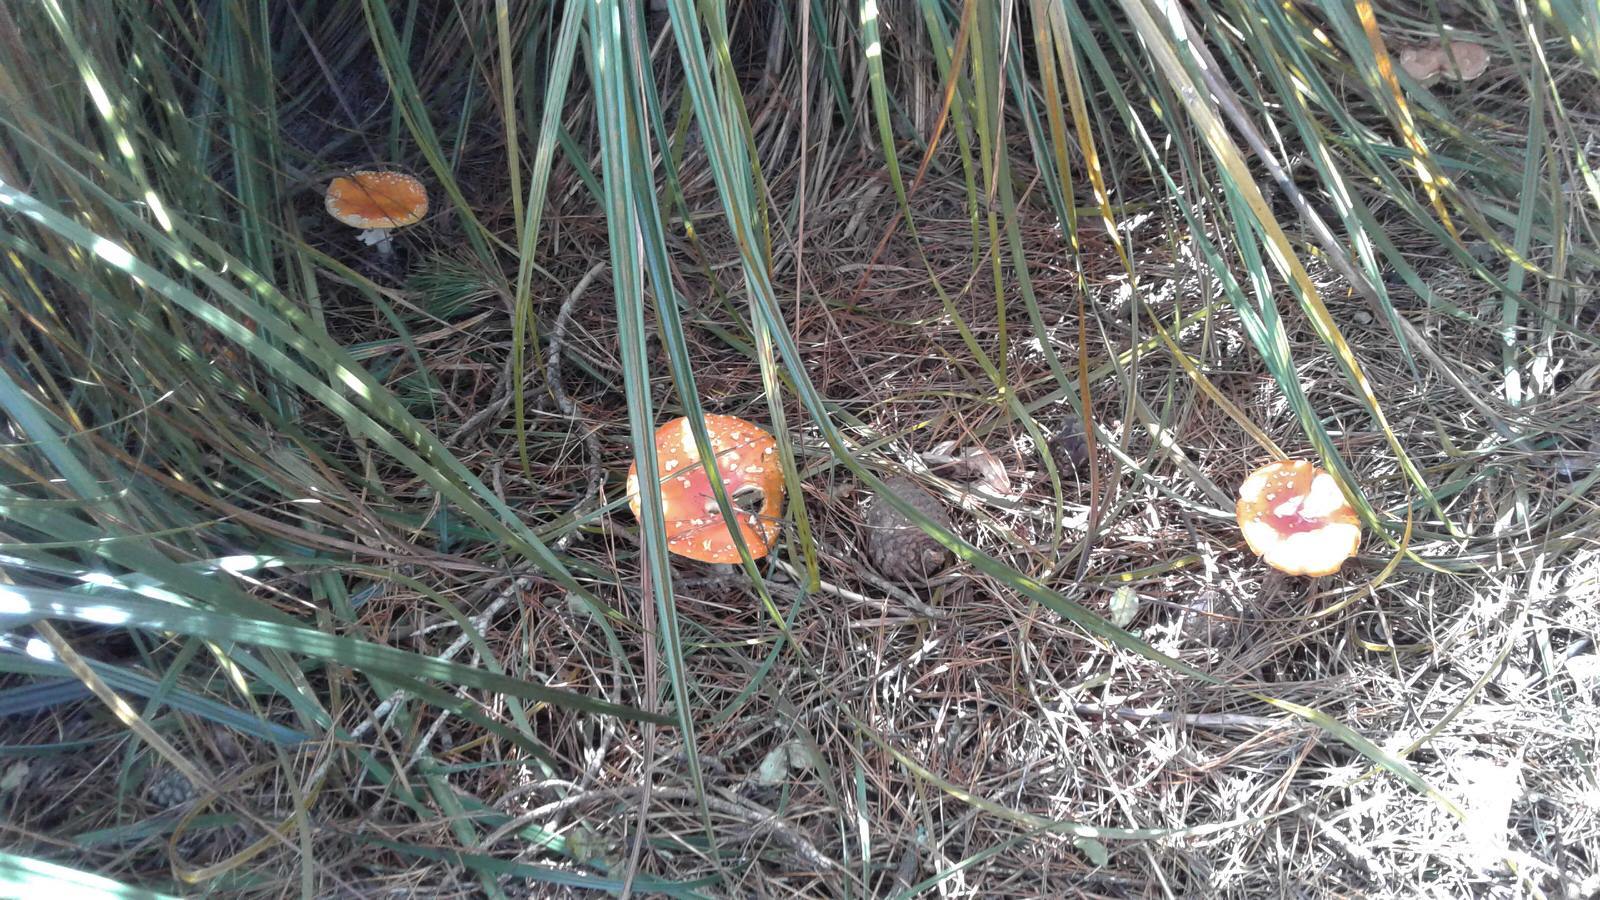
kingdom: Fungi
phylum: Basidiomycota
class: Agaricomycetes
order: Agaricales
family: Amanitaceae
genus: Amanita
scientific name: Amanita muscaria
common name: Fly agaric
